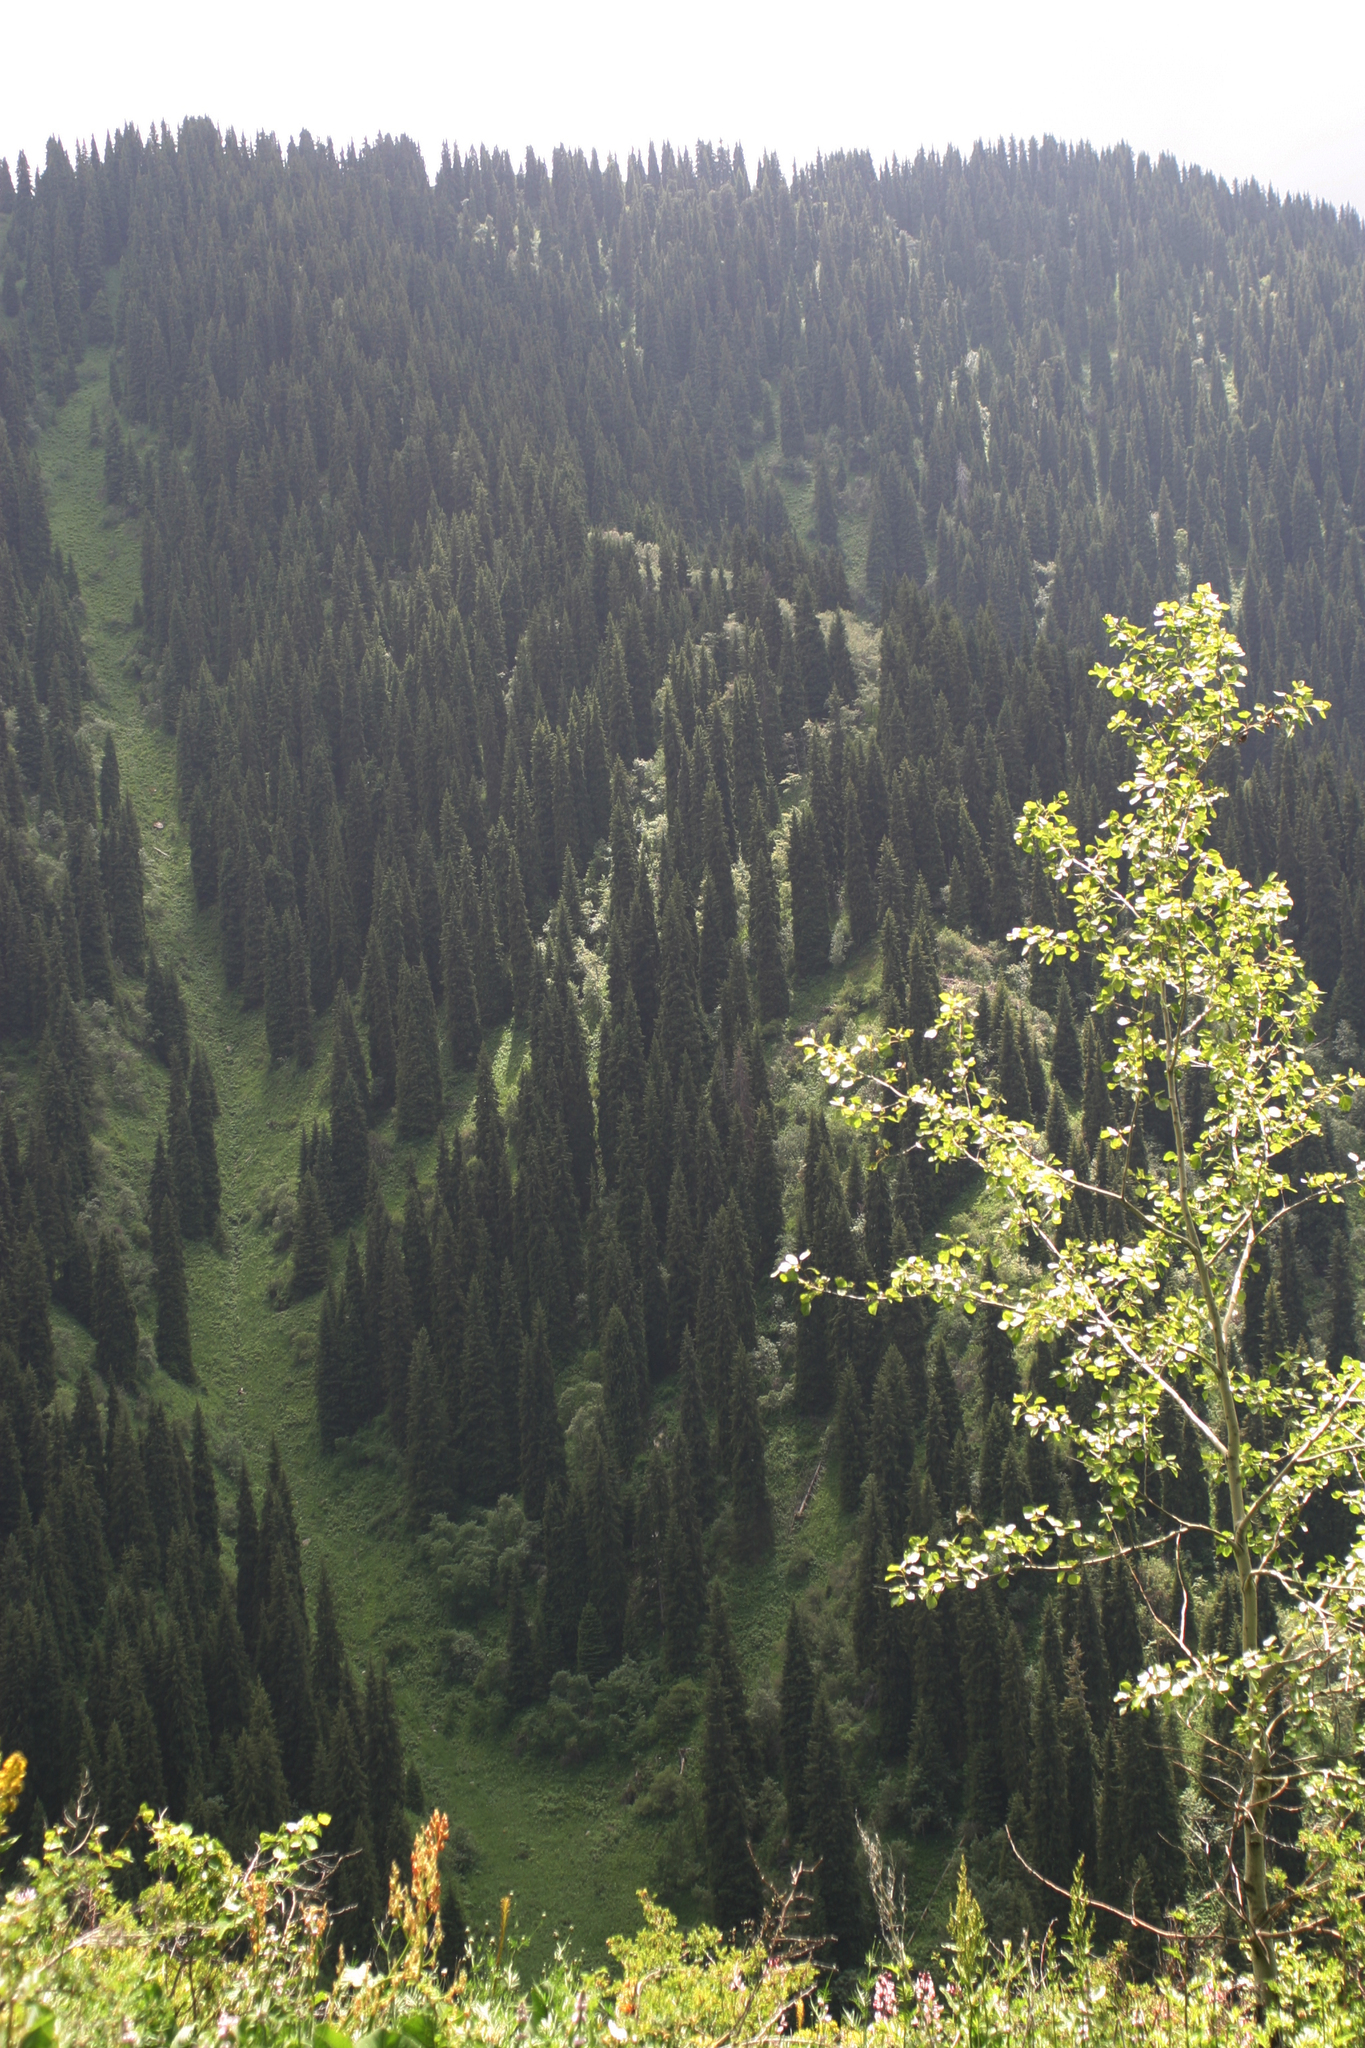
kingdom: Plantae
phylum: Tracheophyta
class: Magnoliopsida
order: Malpighiales
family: Salicaceae
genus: Populus
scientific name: Populus tremula
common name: European aspen
